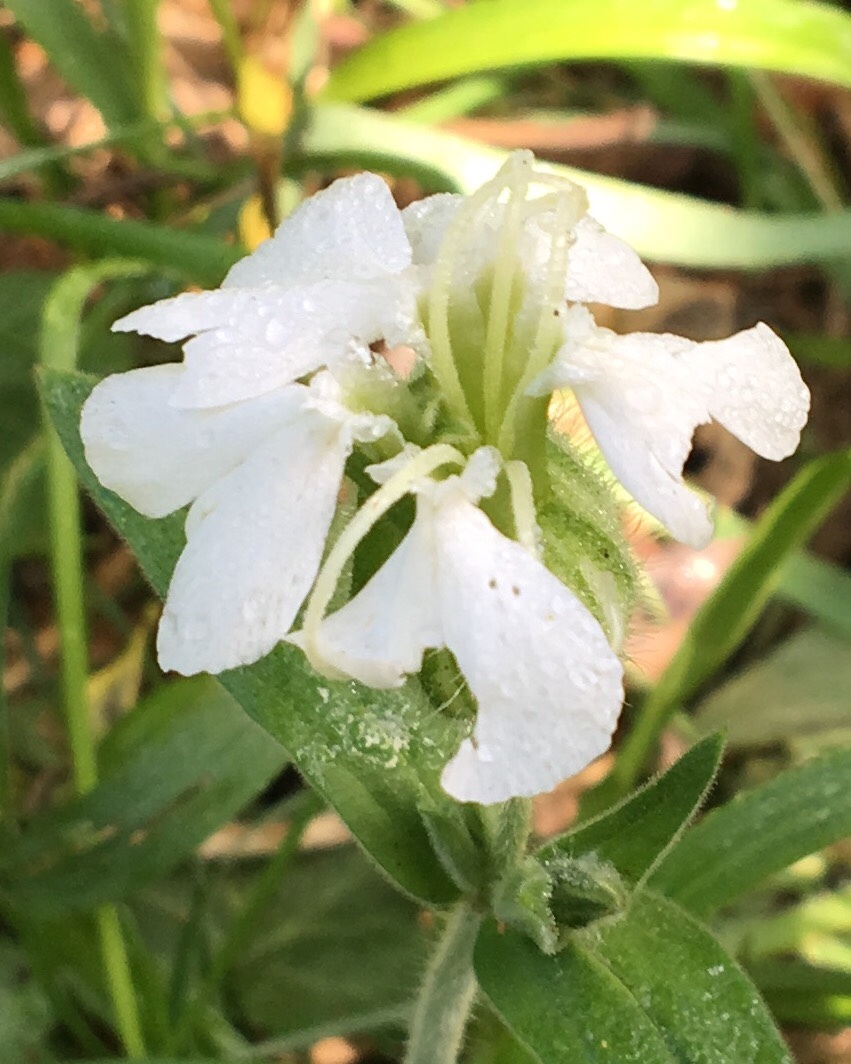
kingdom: Plantae
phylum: Tracheophyta
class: Magnoliopsida
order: Caryophyllales
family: Caryophyllaceae
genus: Silene
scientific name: Silene latifolia
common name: White campion
